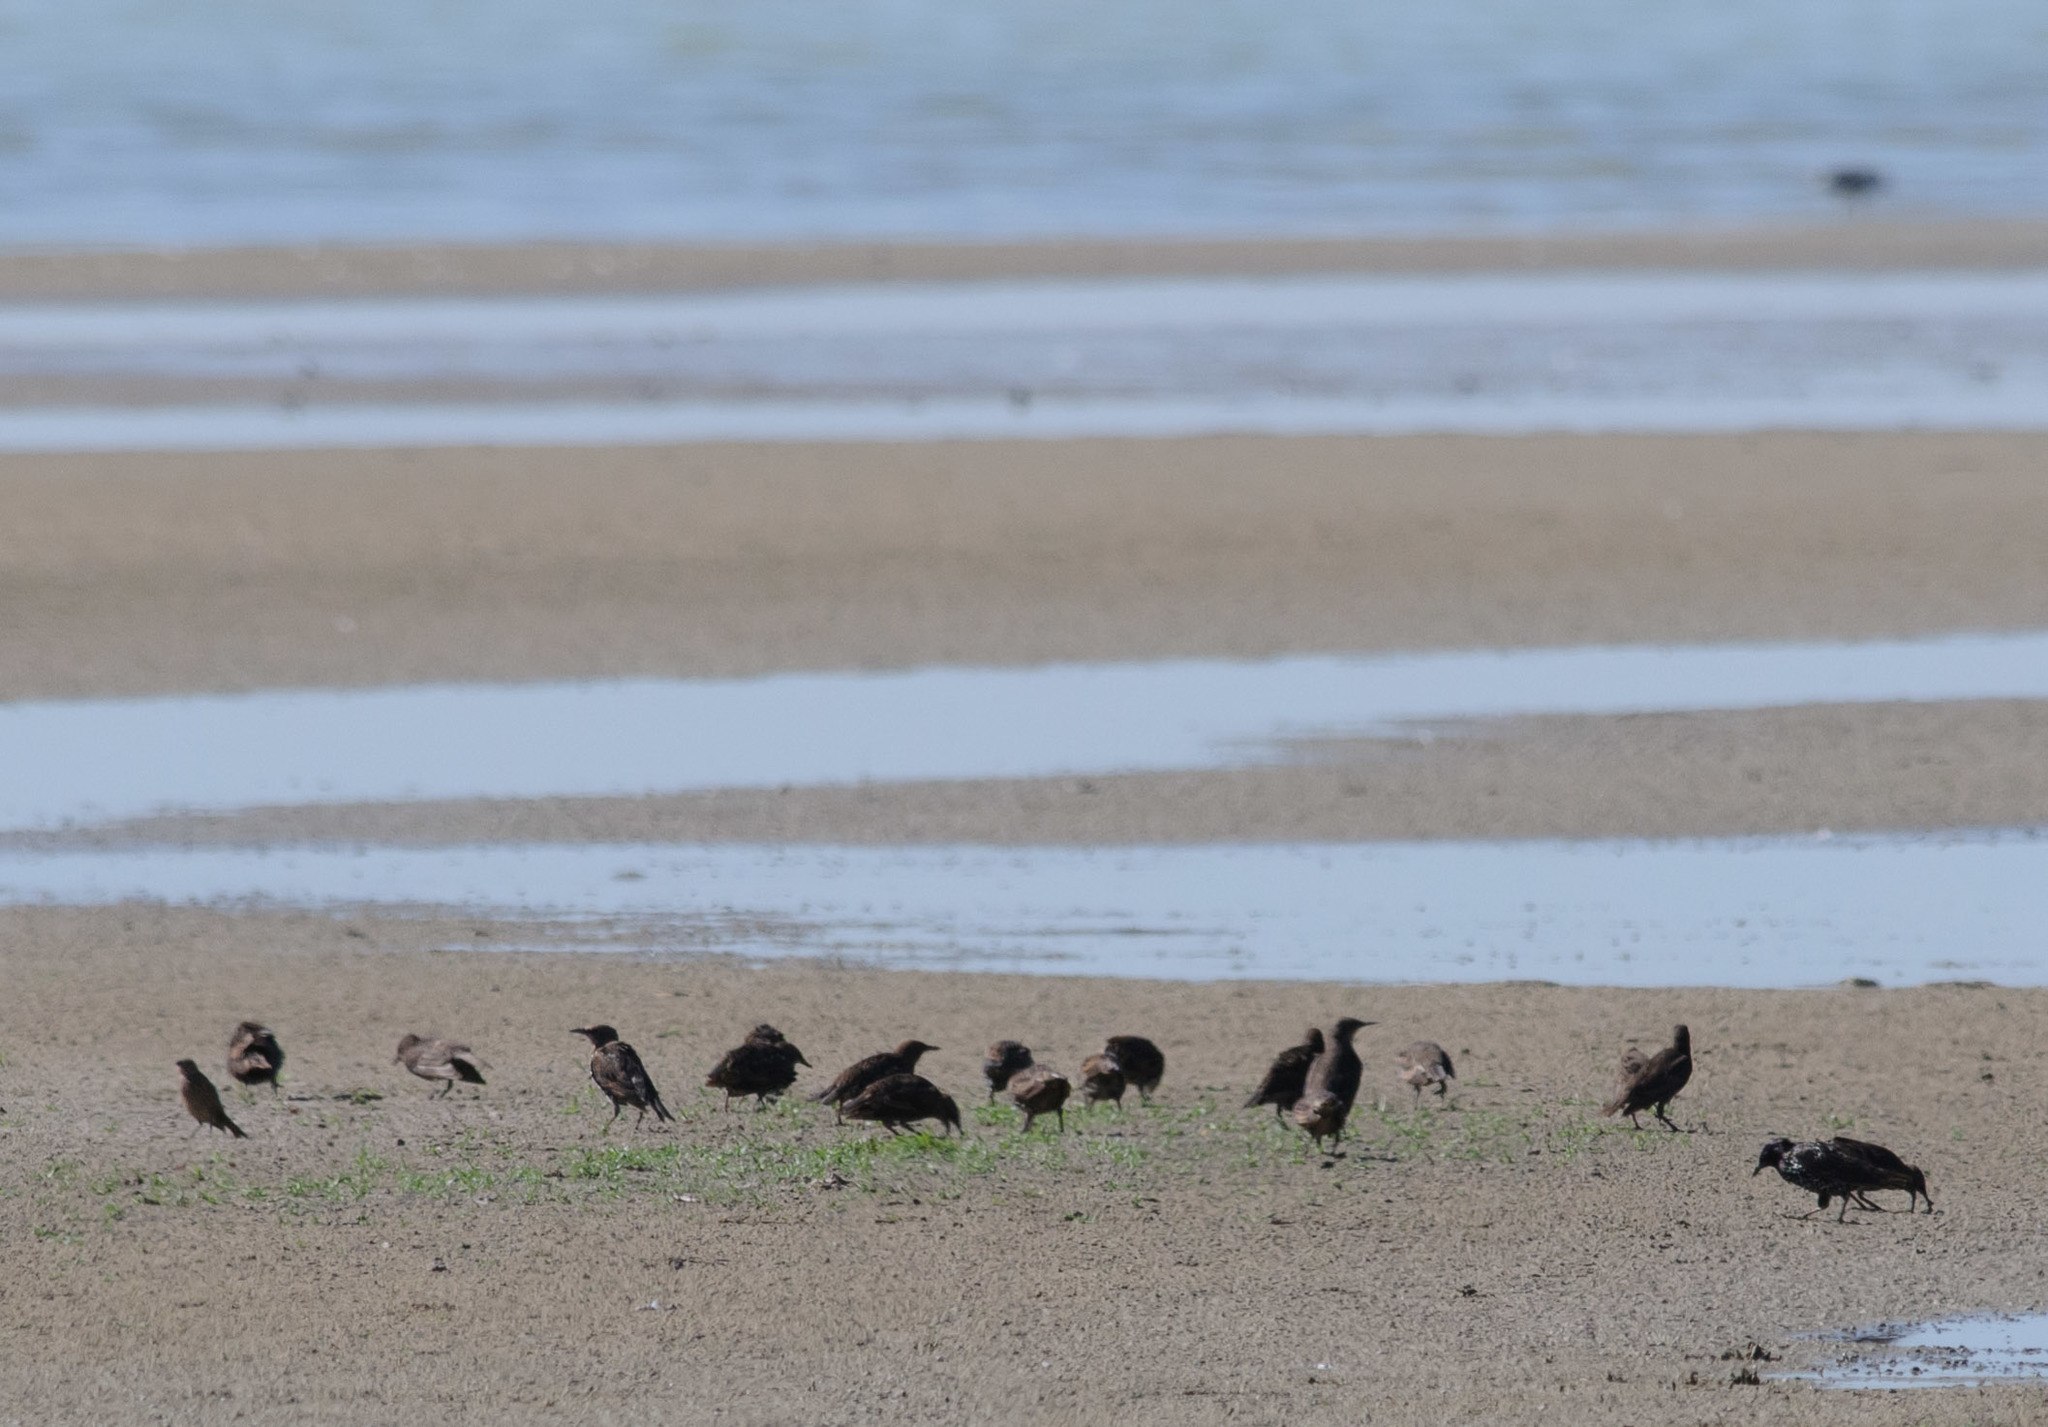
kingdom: Animalia
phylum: Chordata
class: Aves
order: Passeriformes
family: Sturnidae
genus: Sturnus
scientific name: Sturnus vulgaris
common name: Common starling
